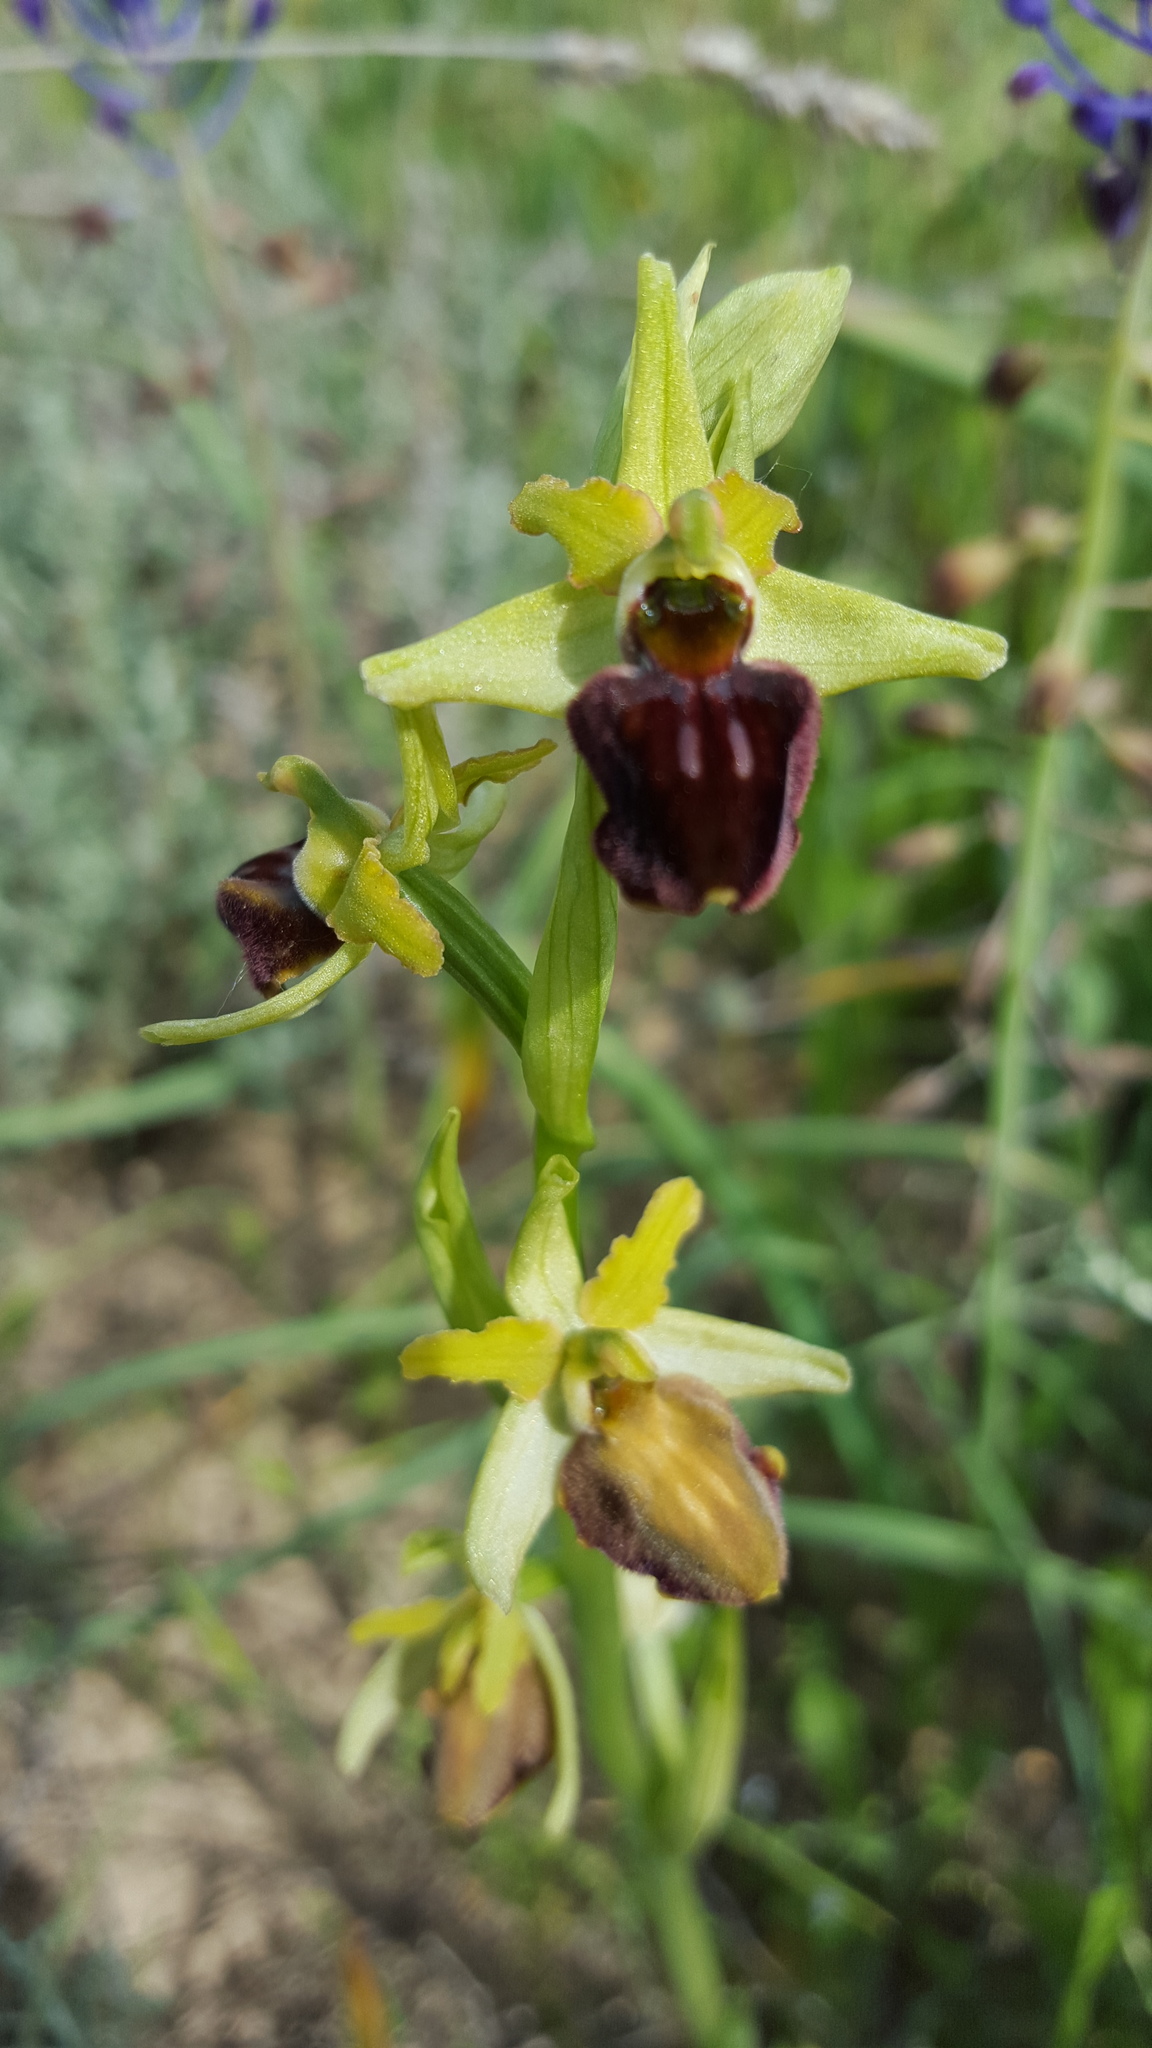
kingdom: Plantae
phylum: Tracheophyta
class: Liliopsida
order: Asparagales
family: Orchidaceae
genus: Ophrys
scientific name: Ophrys sphegodes
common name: Early spider-orchid
